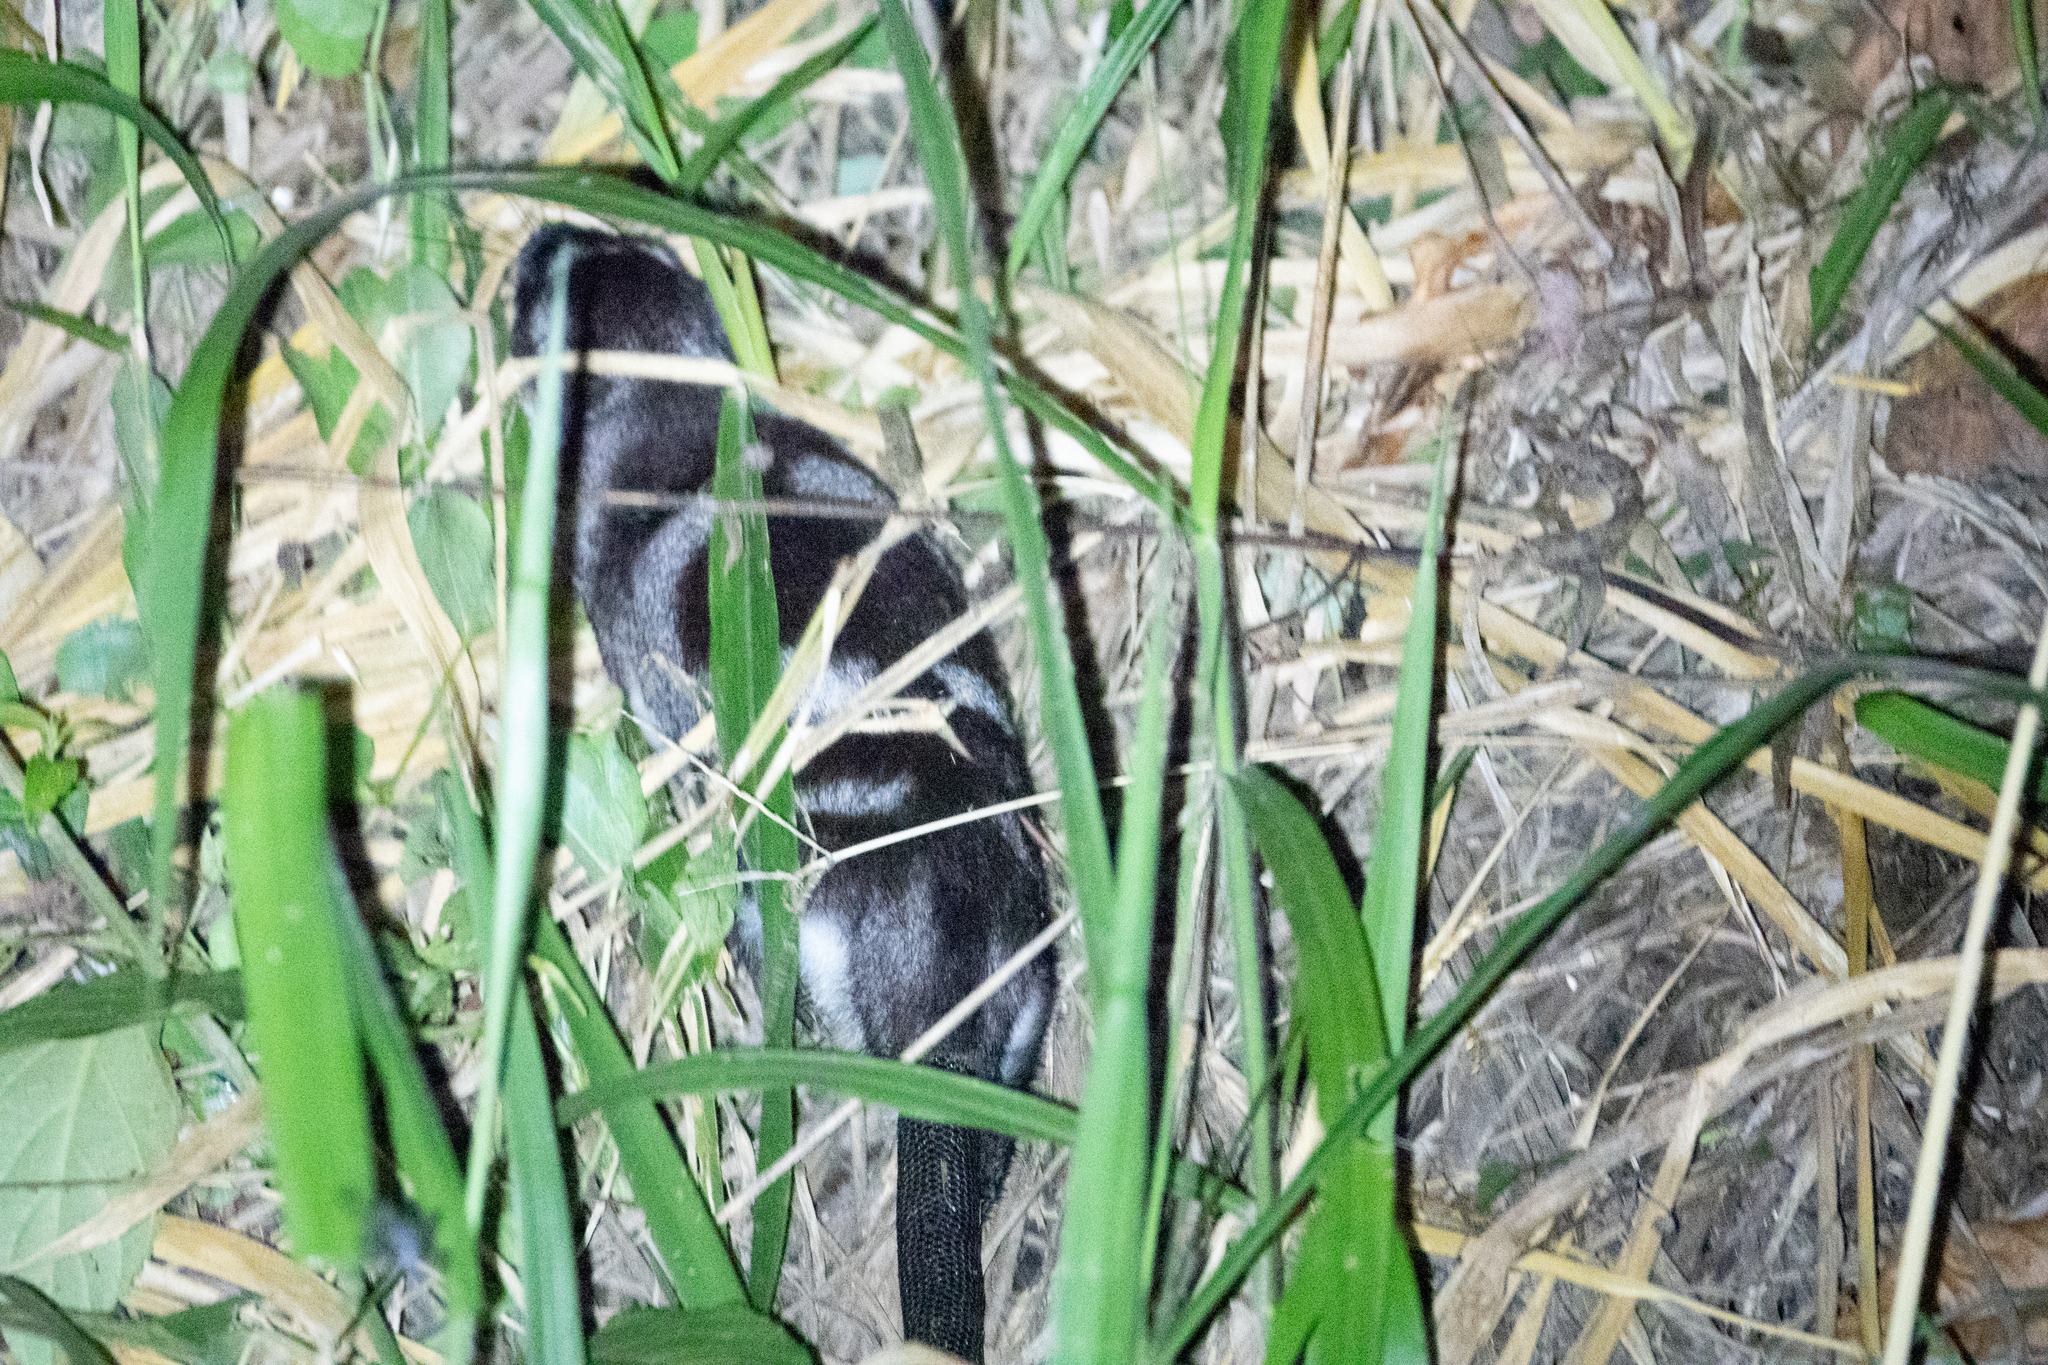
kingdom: Animalia
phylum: Chordata
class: Mammalia
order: Didelphimorphia
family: Didelphidae
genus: Chironectes
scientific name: Chironectes minimus
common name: Water opossum
